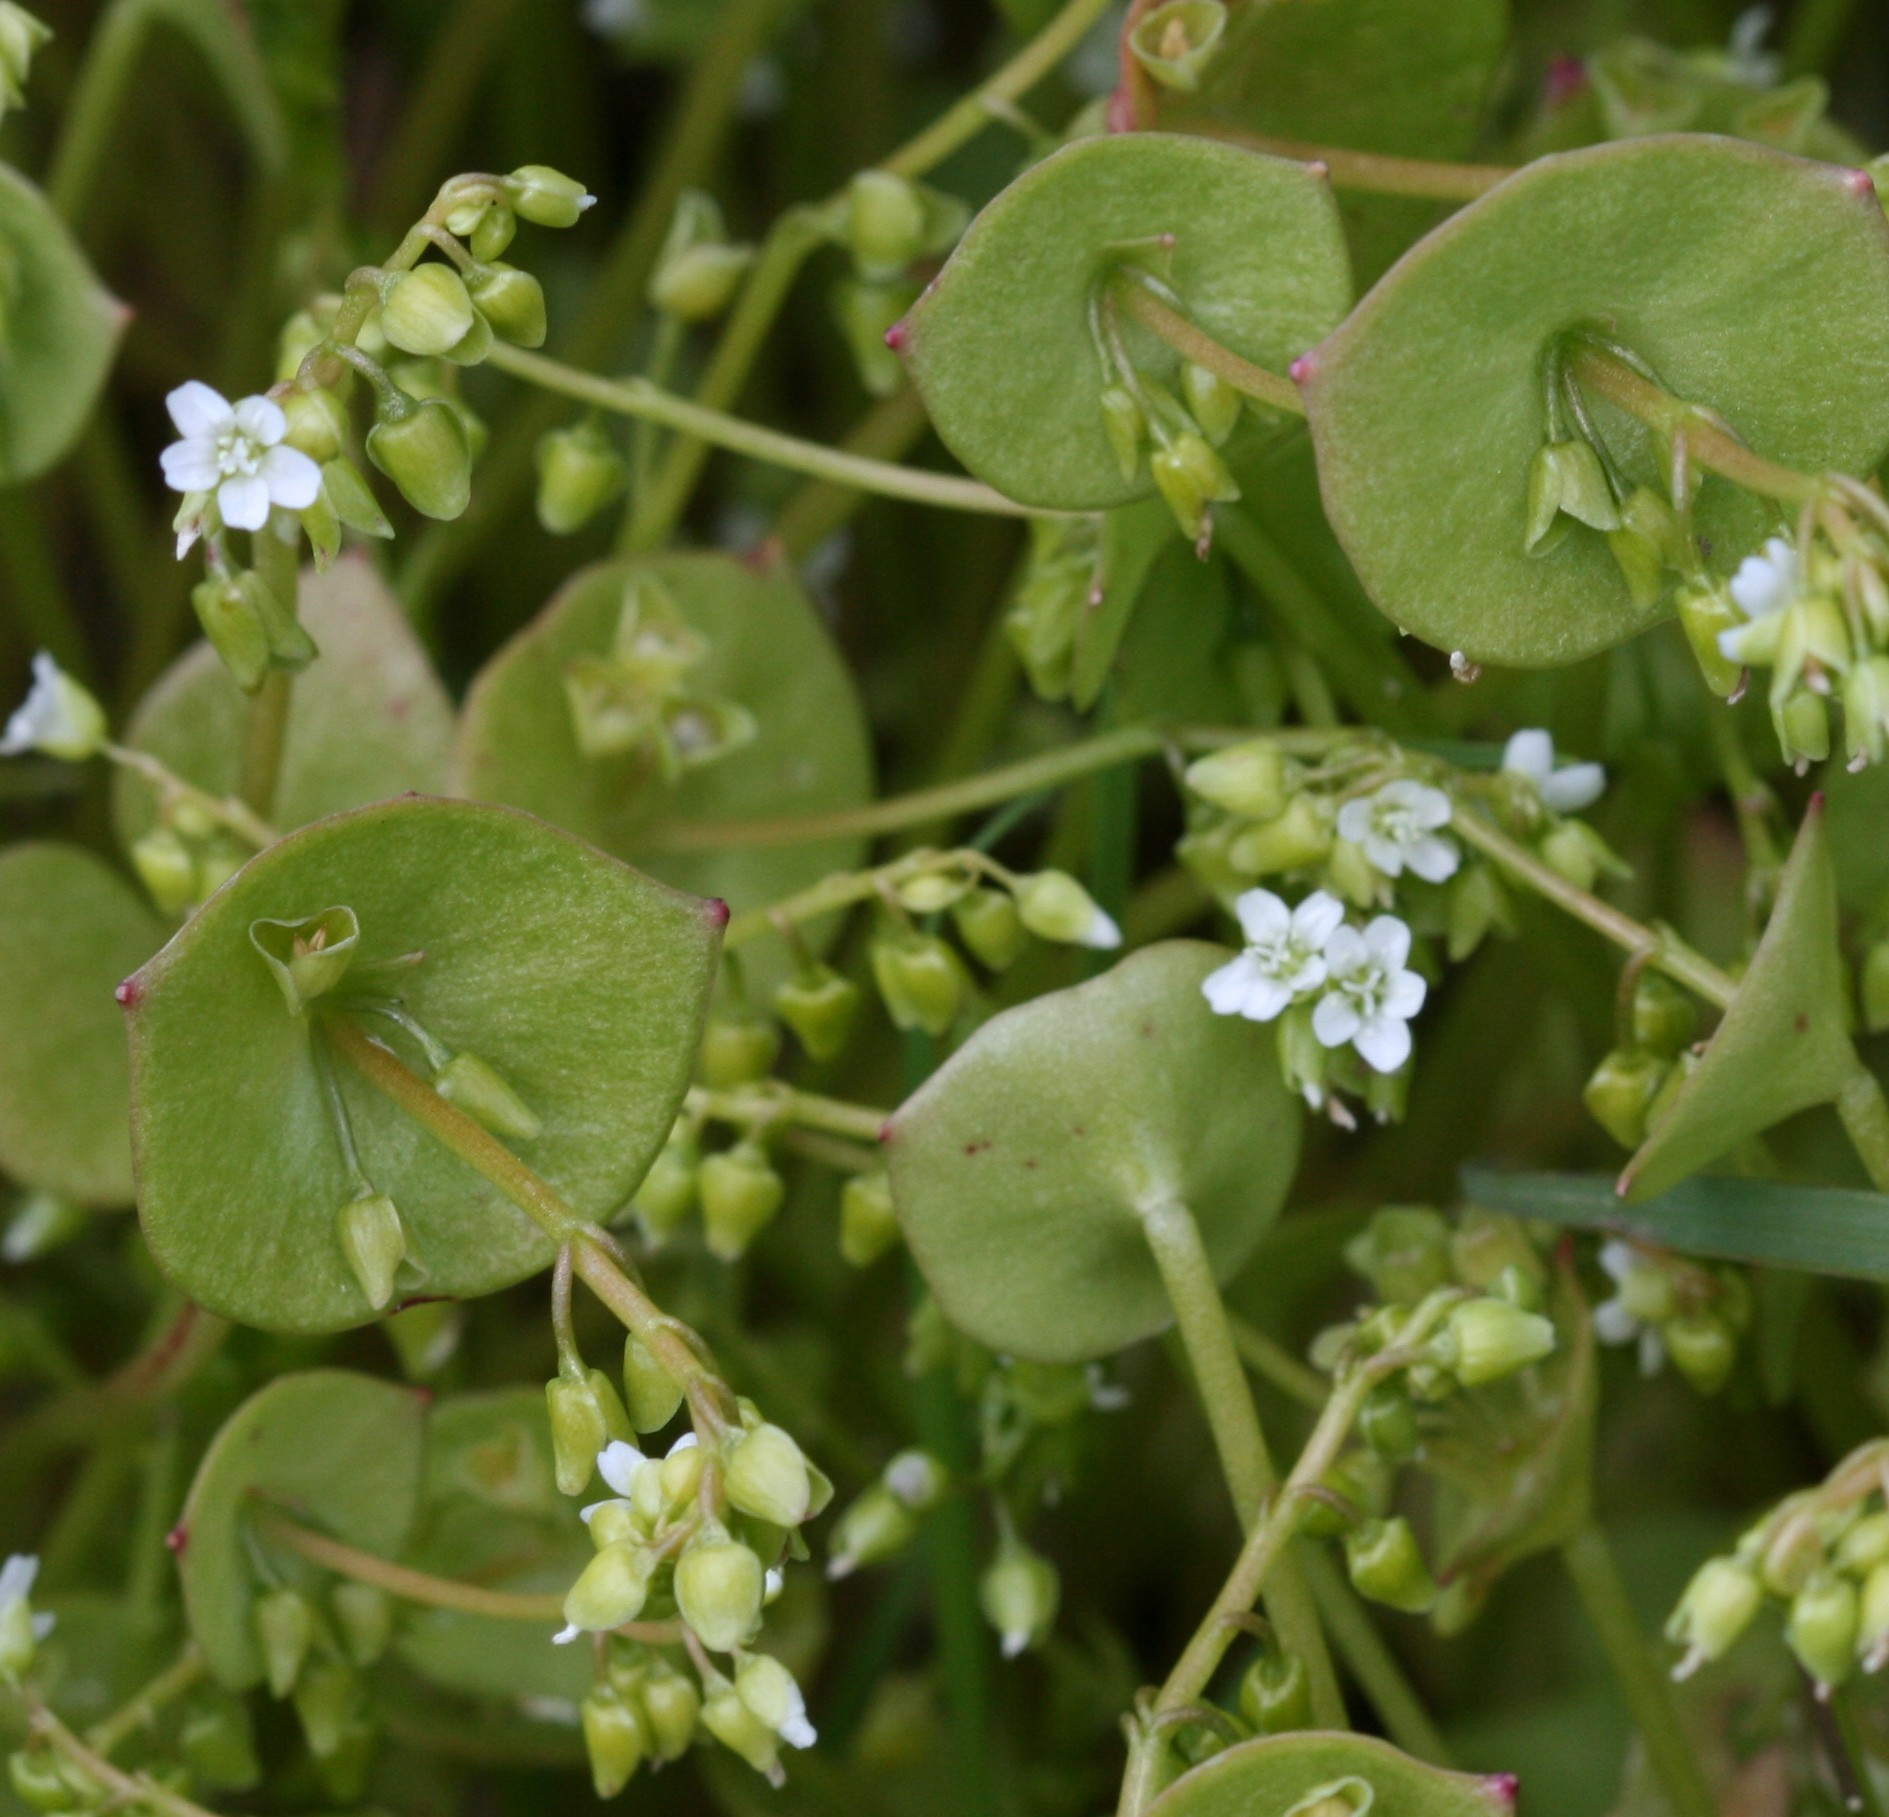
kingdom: Plantae
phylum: Tracheophyta
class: Magnoliopsida
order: Caryophyllales
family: Montiaceae
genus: Claytonia
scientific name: Claytonia perfoliata
